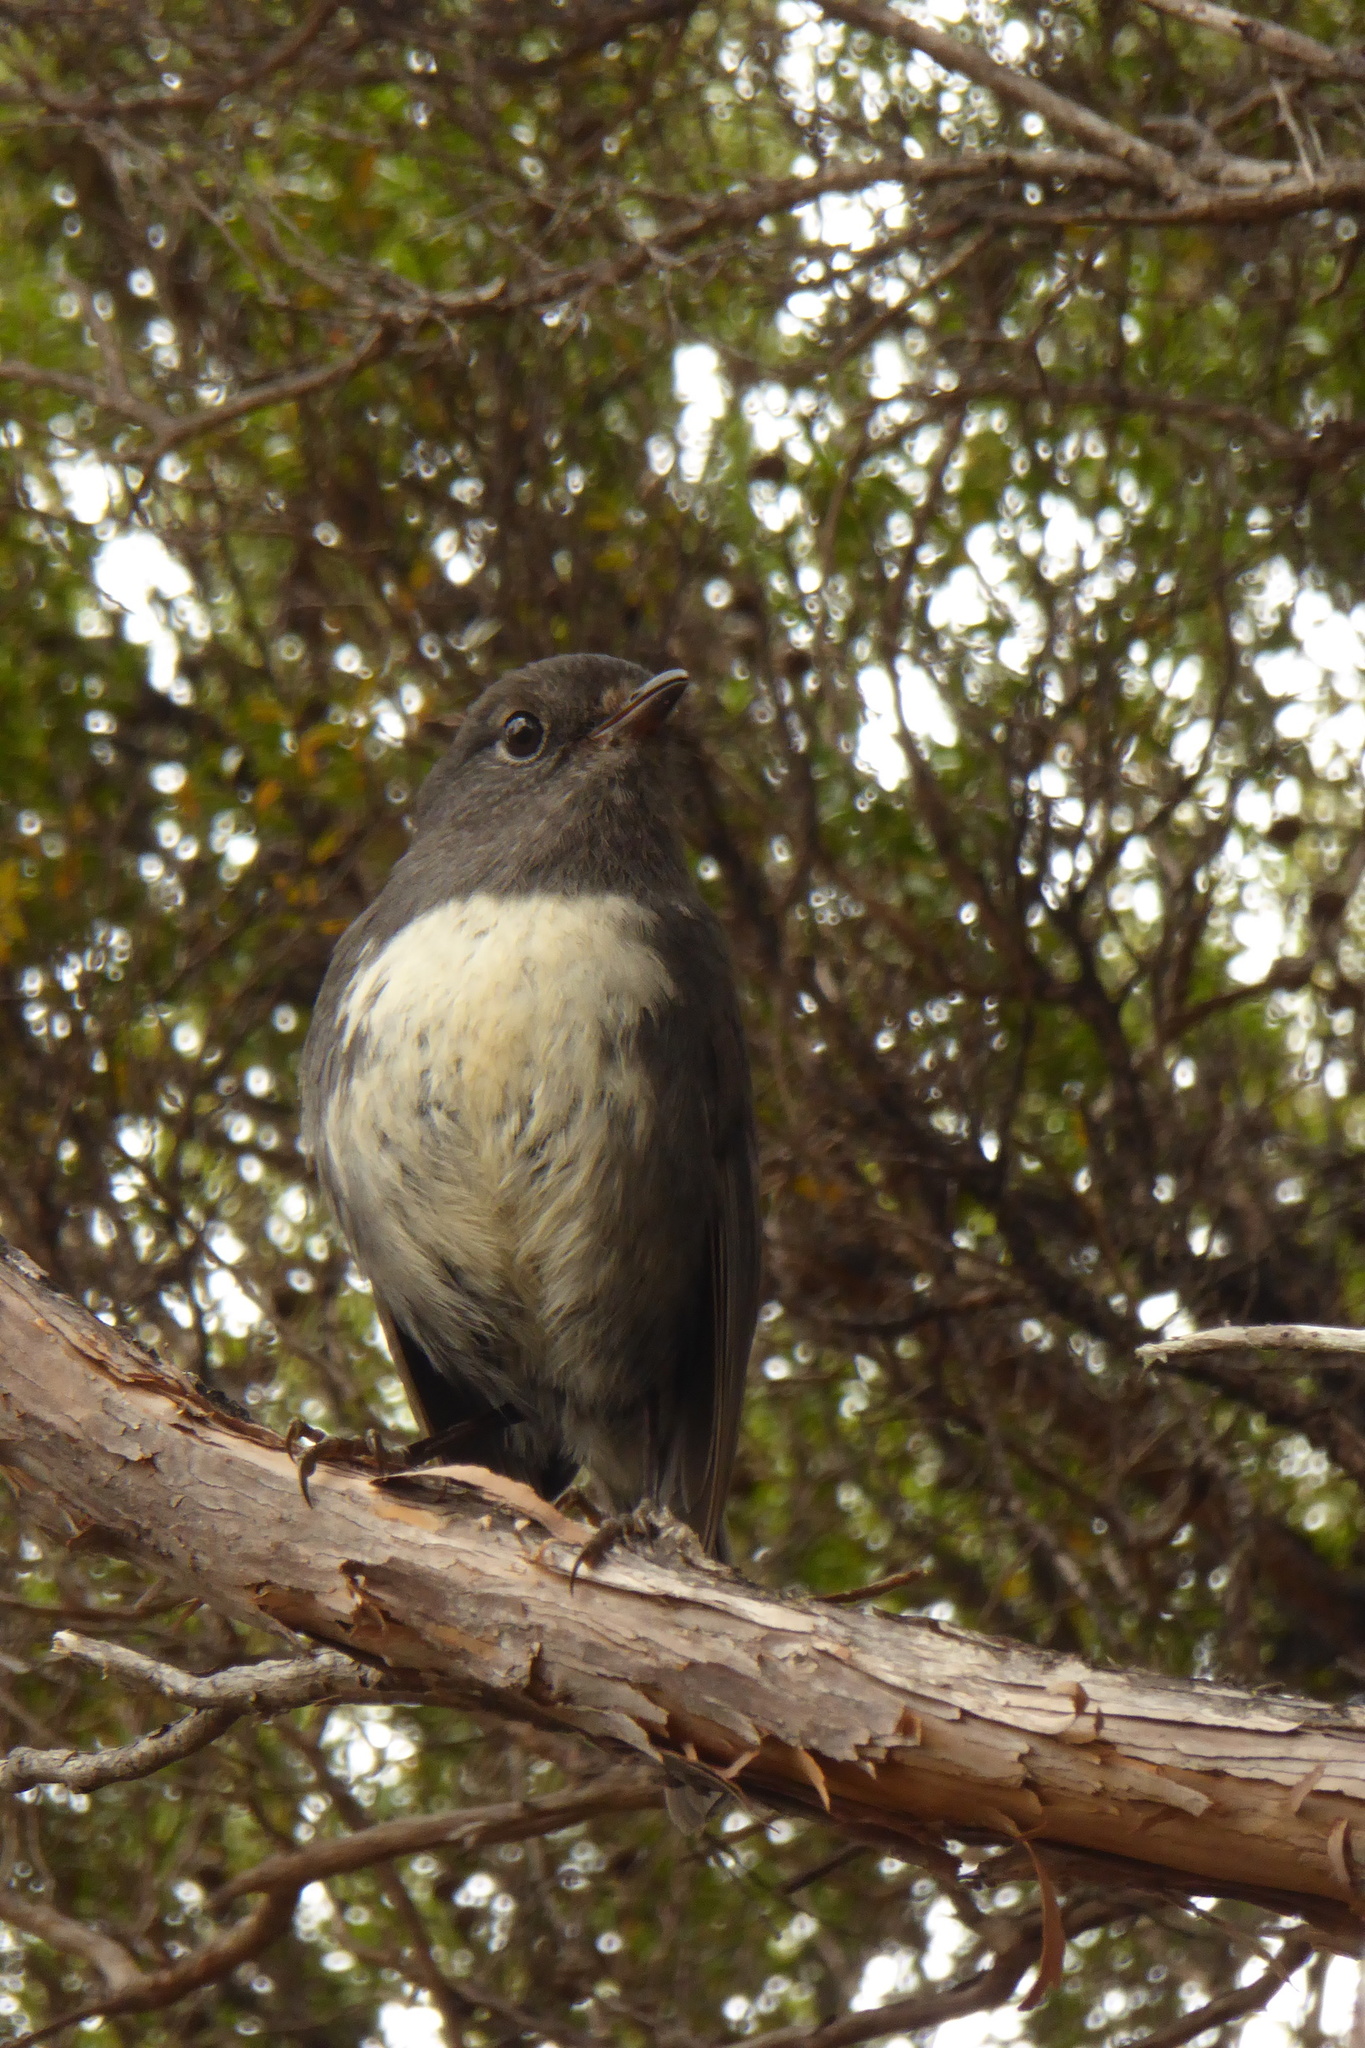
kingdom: Animalia
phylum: Chordata
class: Aves
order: Passeriformes
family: Petroicidae
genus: Petroica
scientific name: Petroica australis
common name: New zealand robin
